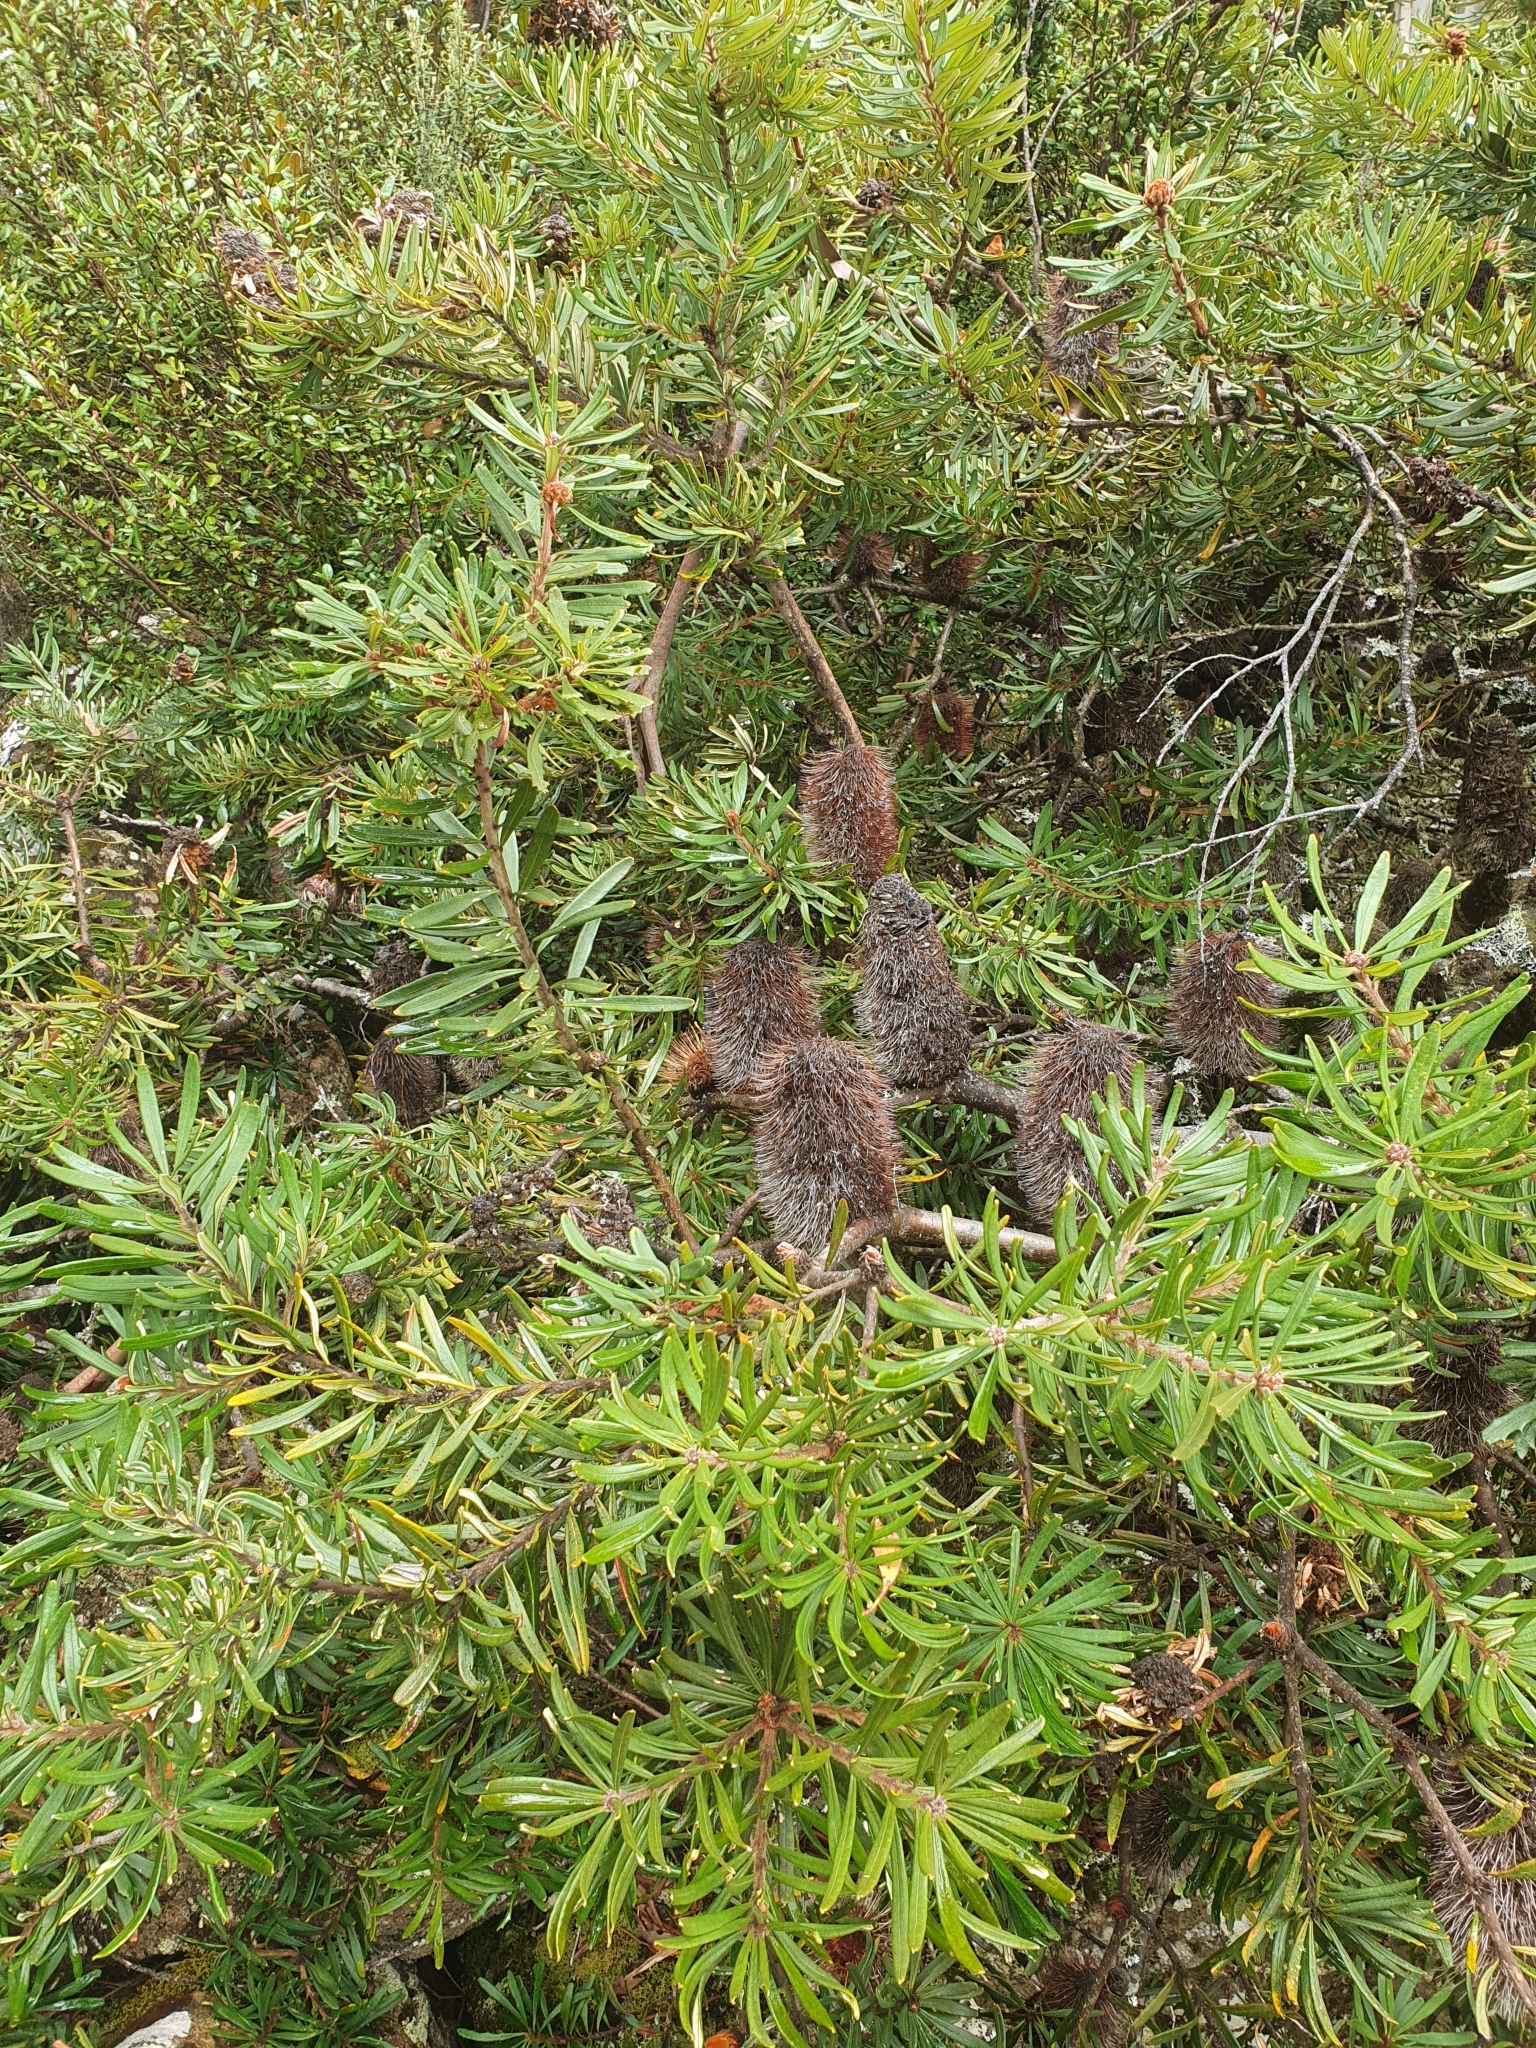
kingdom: Plantae
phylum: Tracheophyta
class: Magnoliopsida
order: Proteales
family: Proteaceae
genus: Banksia
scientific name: Banksia marginata
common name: Silver banksia
